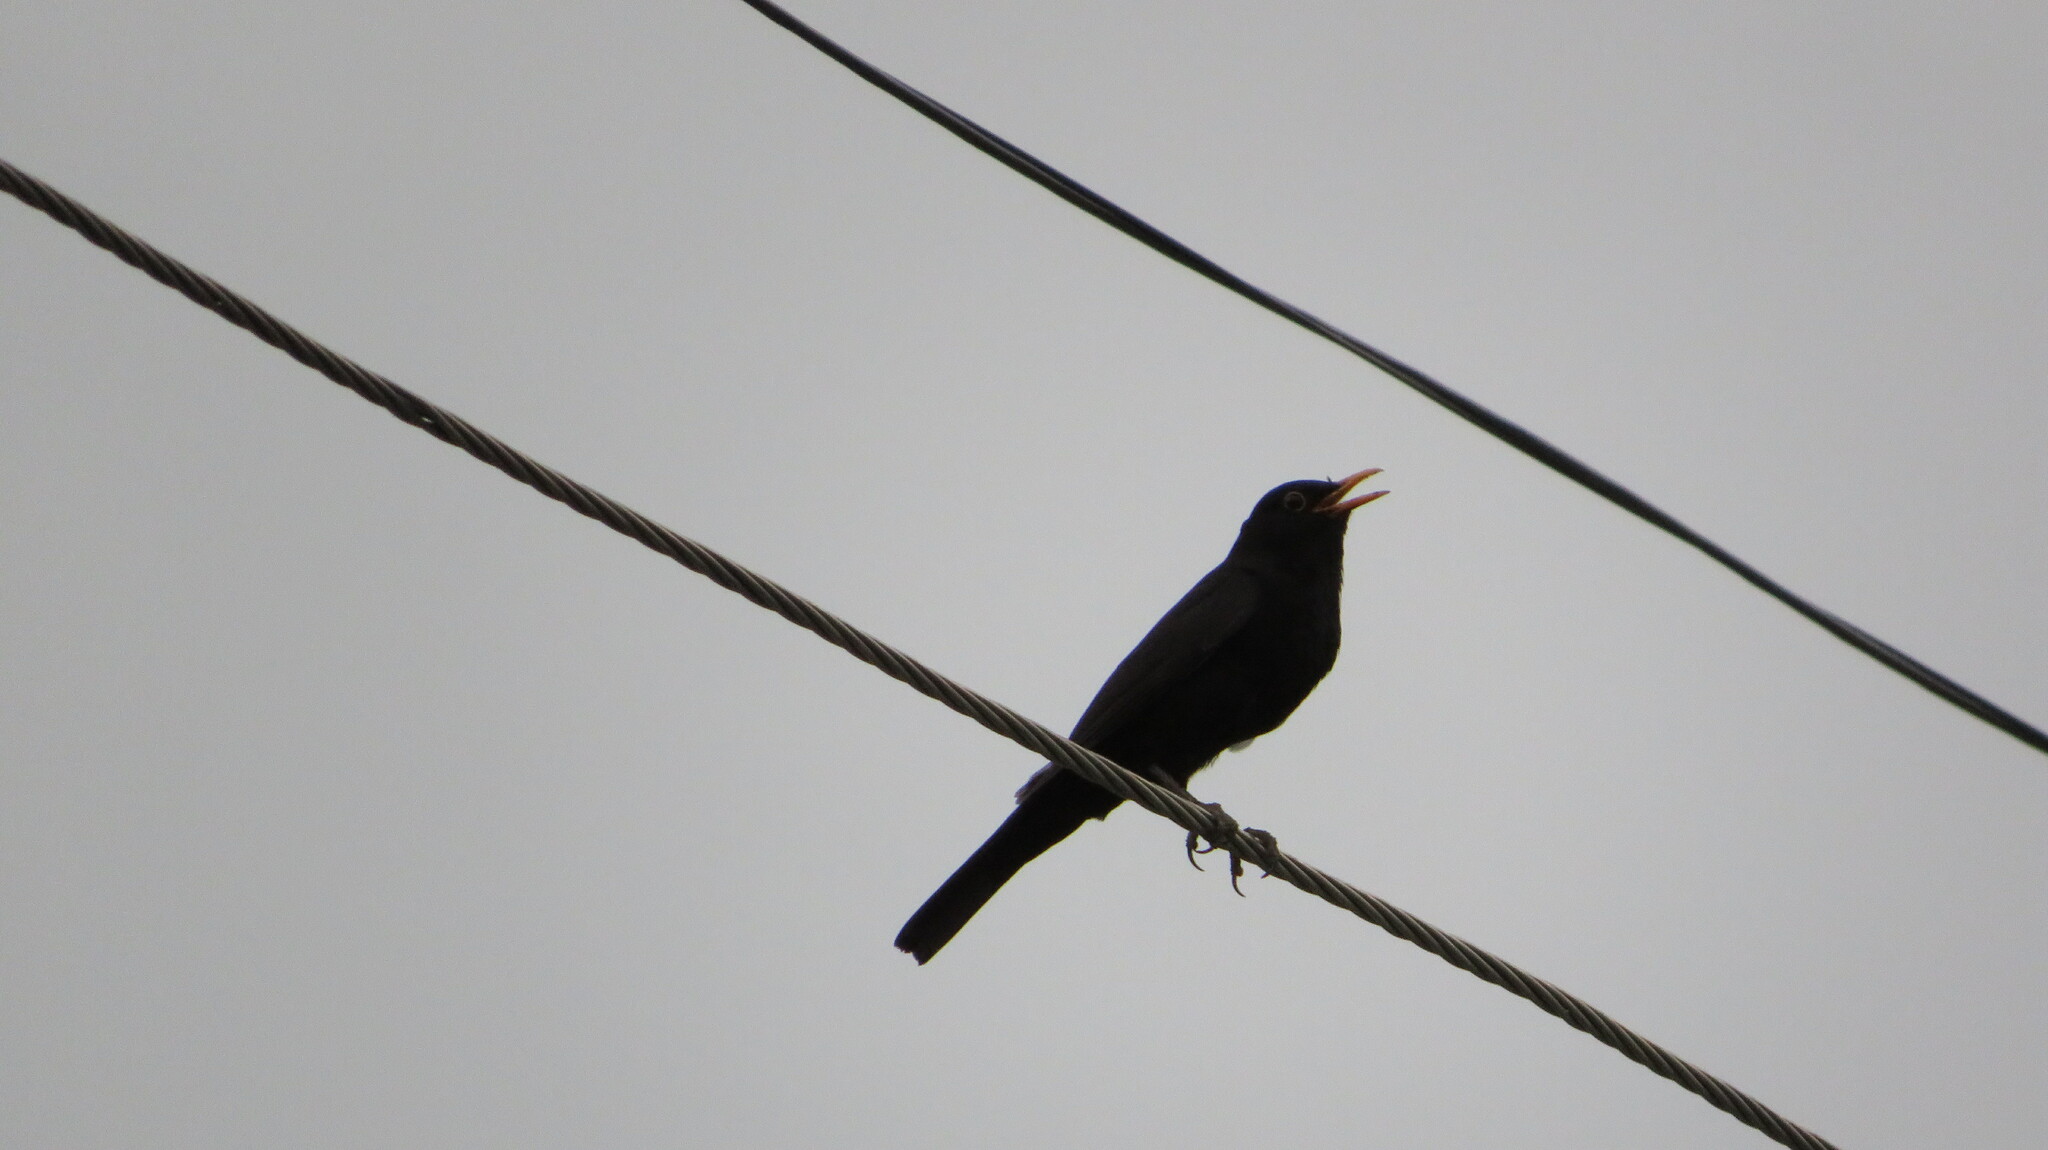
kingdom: Animalia
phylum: Chordata
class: Aves
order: Passeriformes
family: Turdidae
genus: Turdus
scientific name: Turdus merula
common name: Common blackbird
